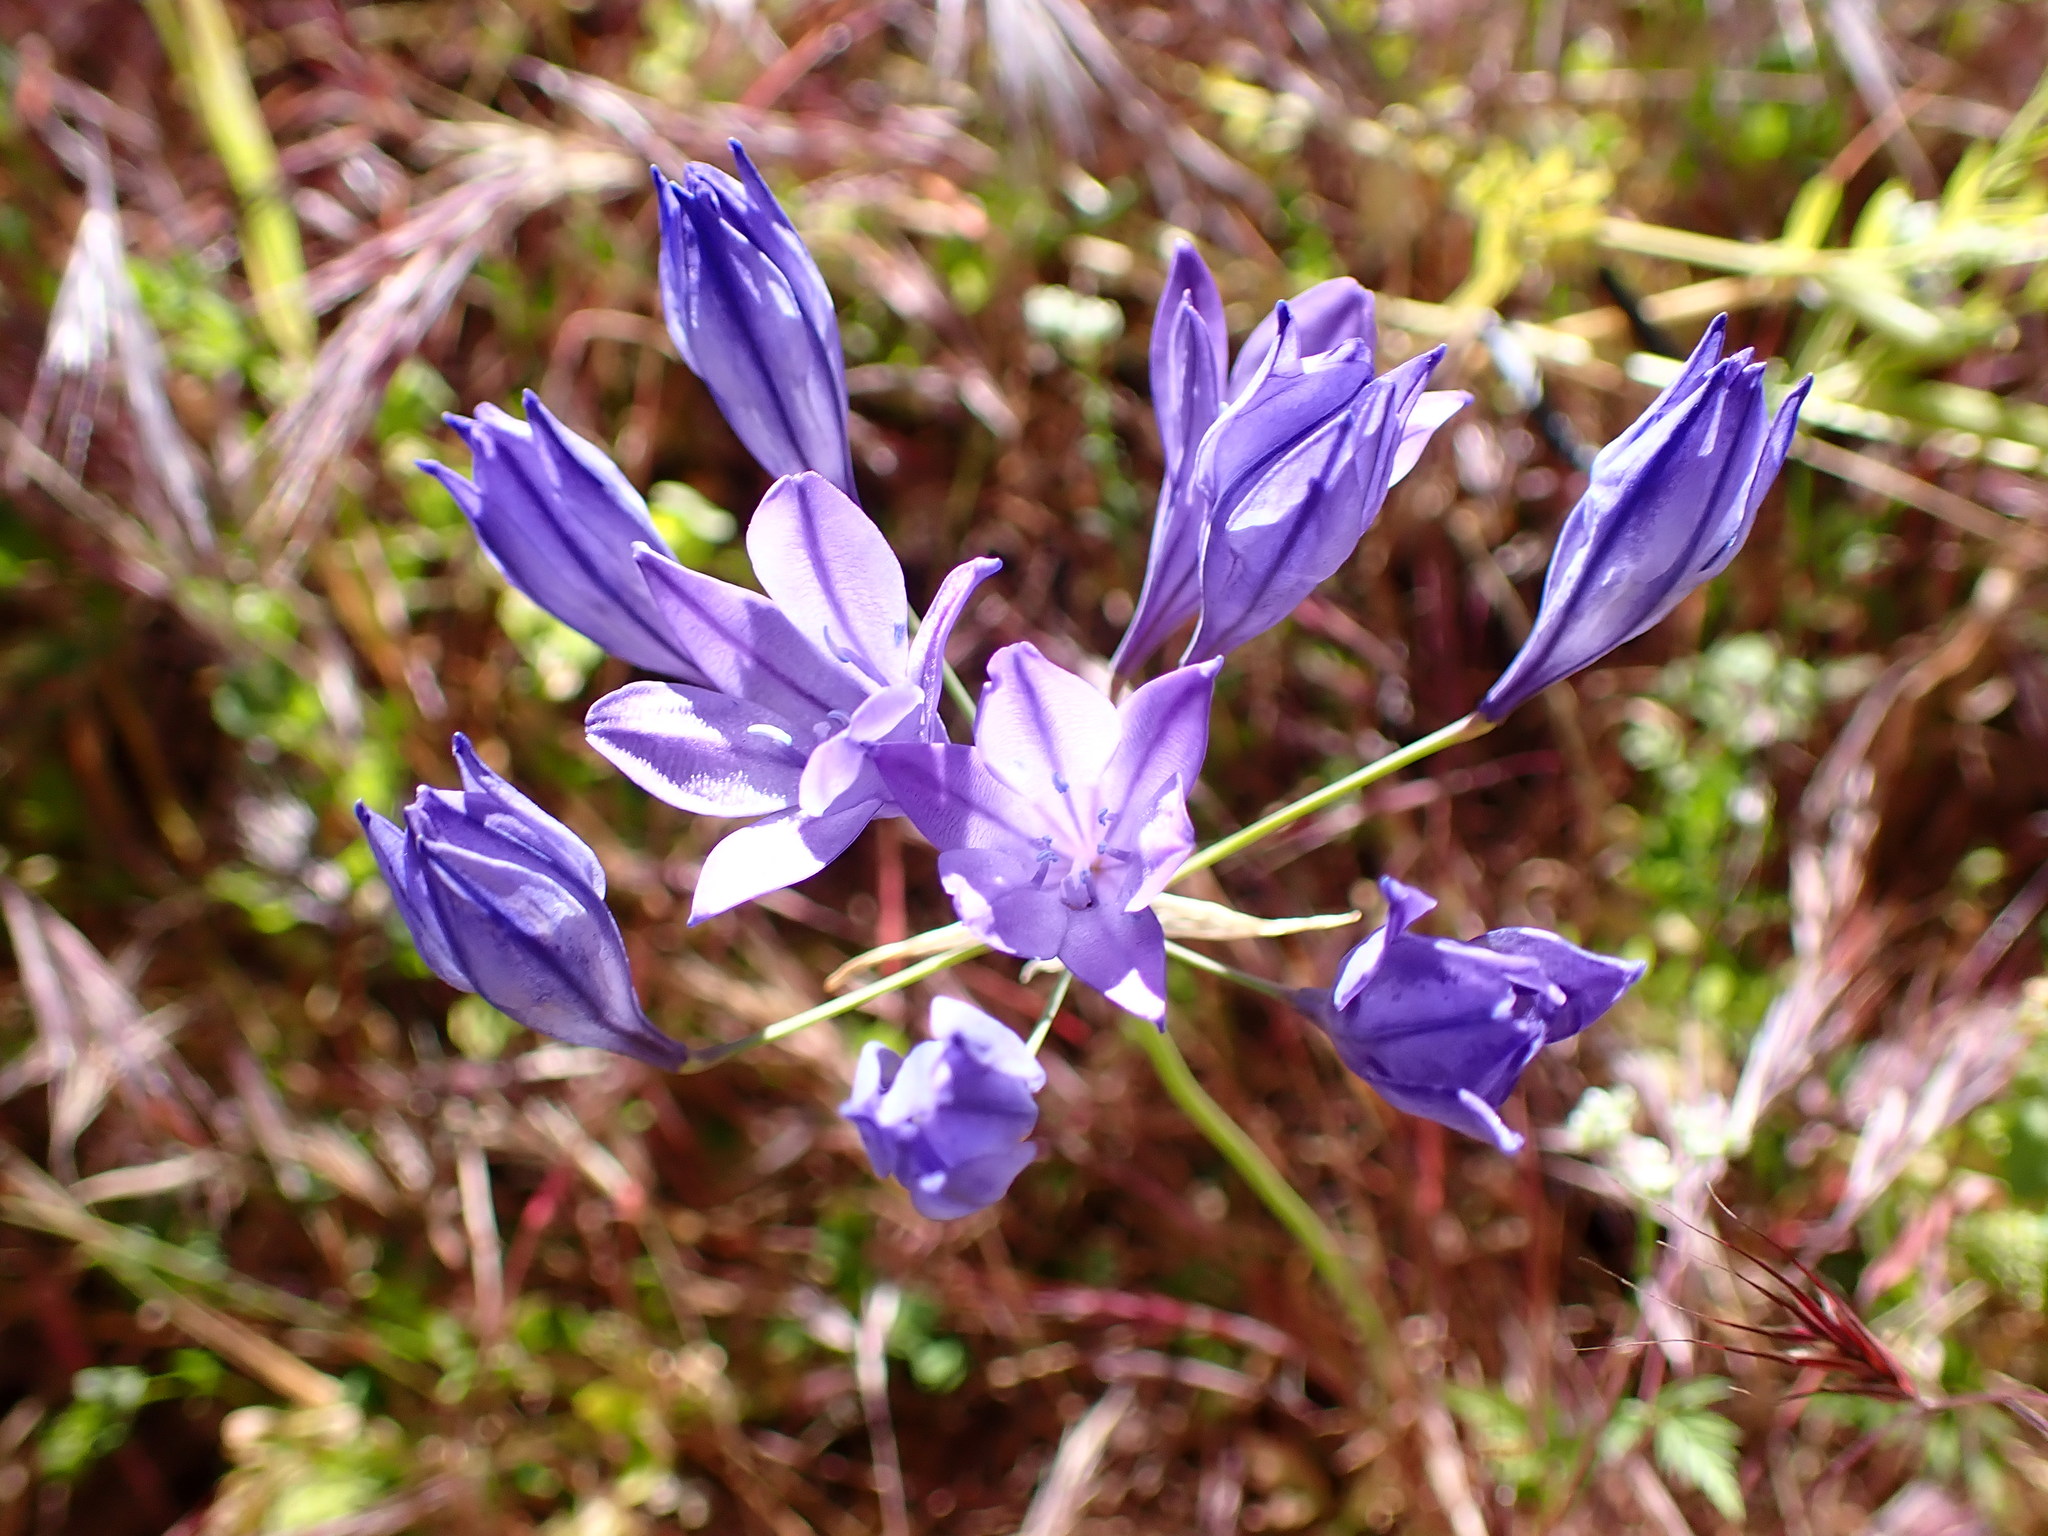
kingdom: Plantae
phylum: Tracheophyta
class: Liliopsida
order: Asparagales
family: Asparagaceae
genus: Triteleia
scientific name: Triteleia laxa
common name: Triplet-lily
